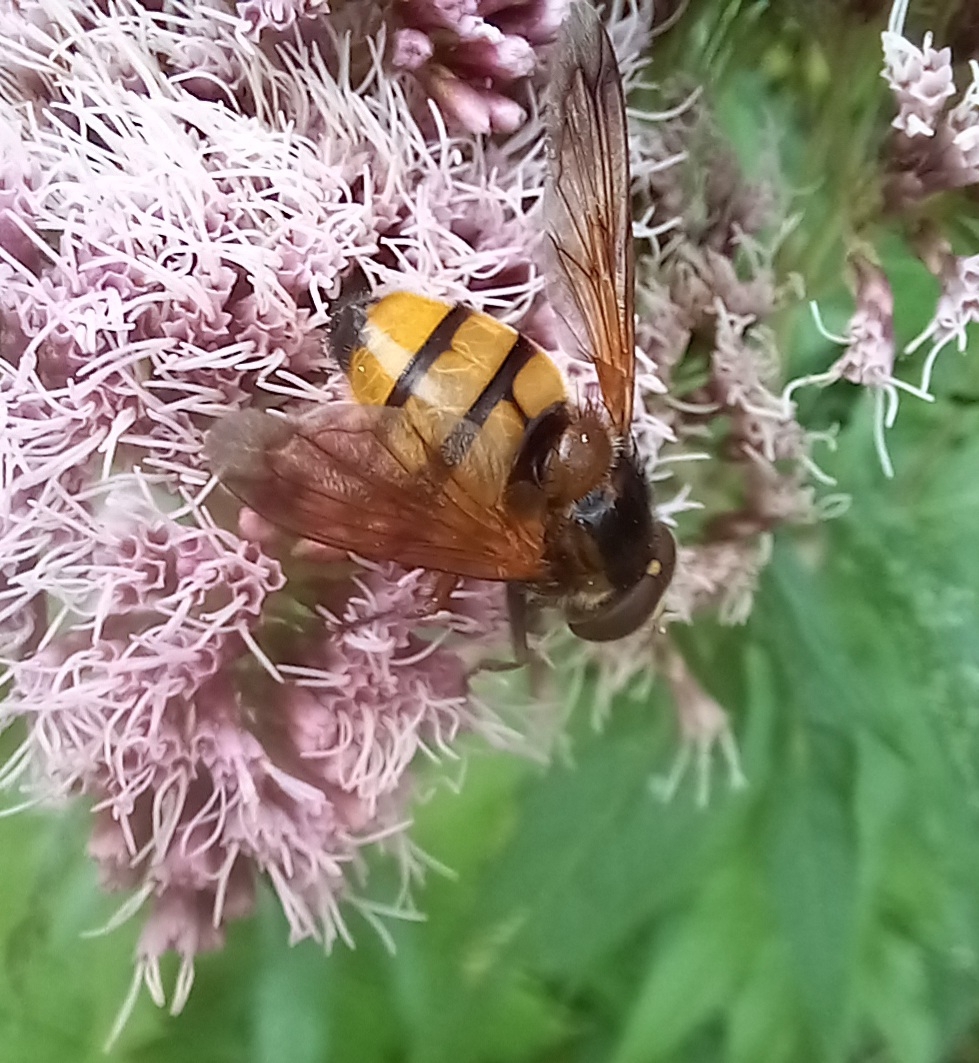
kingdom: Animalia
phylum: Arthropoda
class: Insecta
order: Diptera
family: Syrphidae
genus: Volucella
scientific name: Volucella inanis
